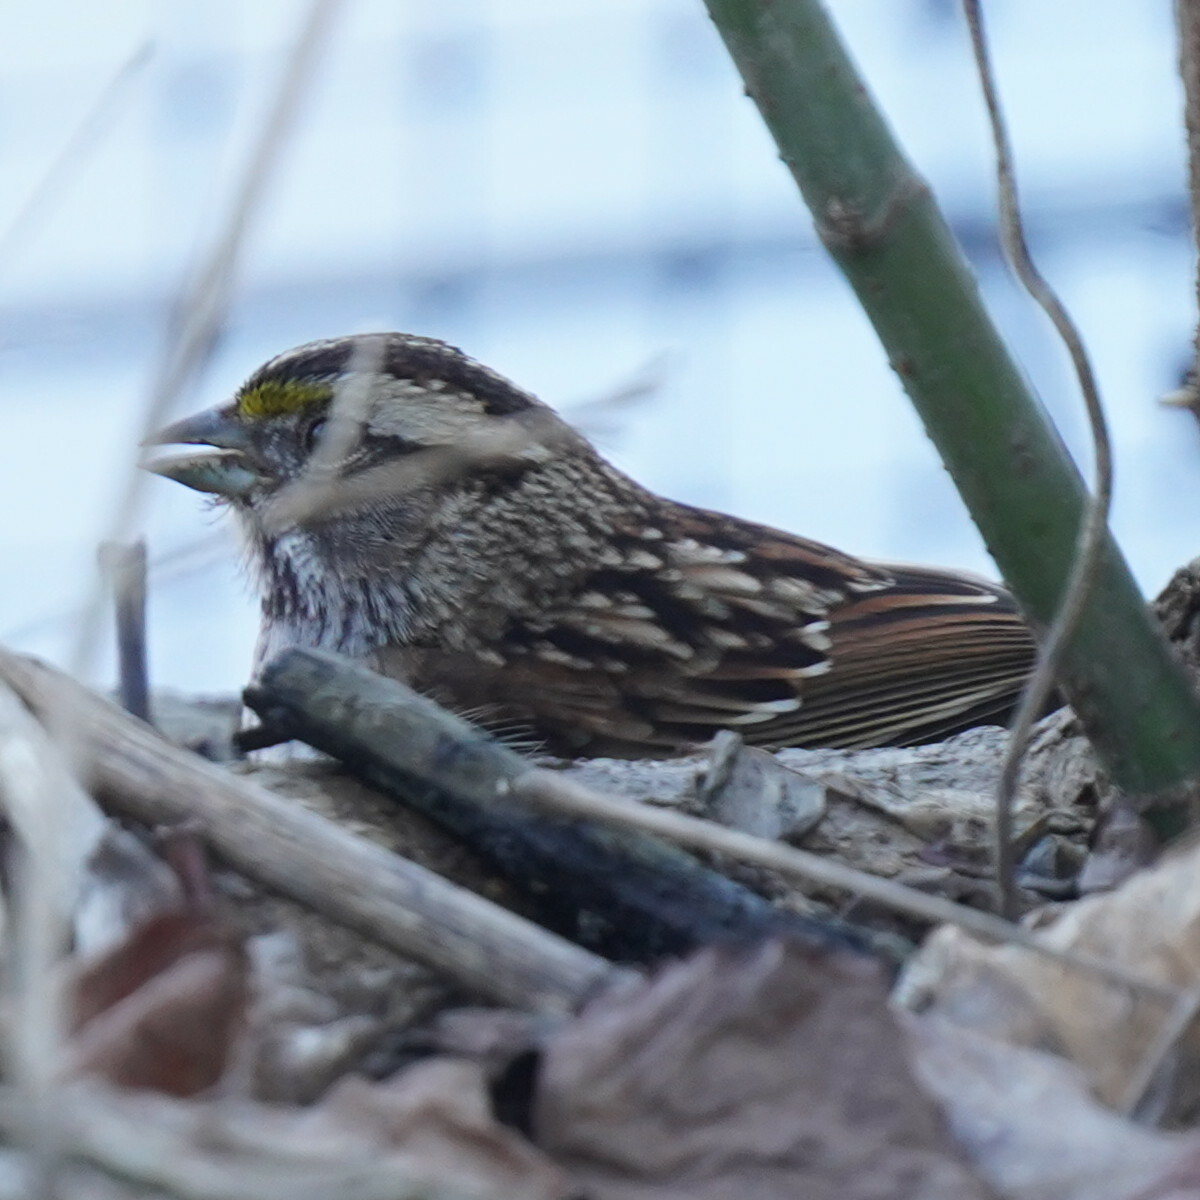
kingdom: Animalia
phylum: Chordata
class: Aves
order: Passeriformes
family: Passerellidae
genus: Zonotrichia
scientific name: Zonotrichia albicollis
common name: White-throated sparrow
